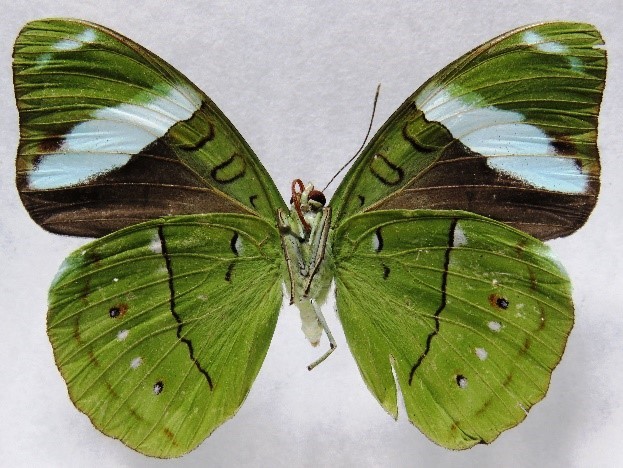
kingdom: Animalia
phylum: Arthropoda
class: Insecta
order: Lepidoptera
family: Nymphalidae
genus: Nessaea
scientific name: Nessaea aglaura
